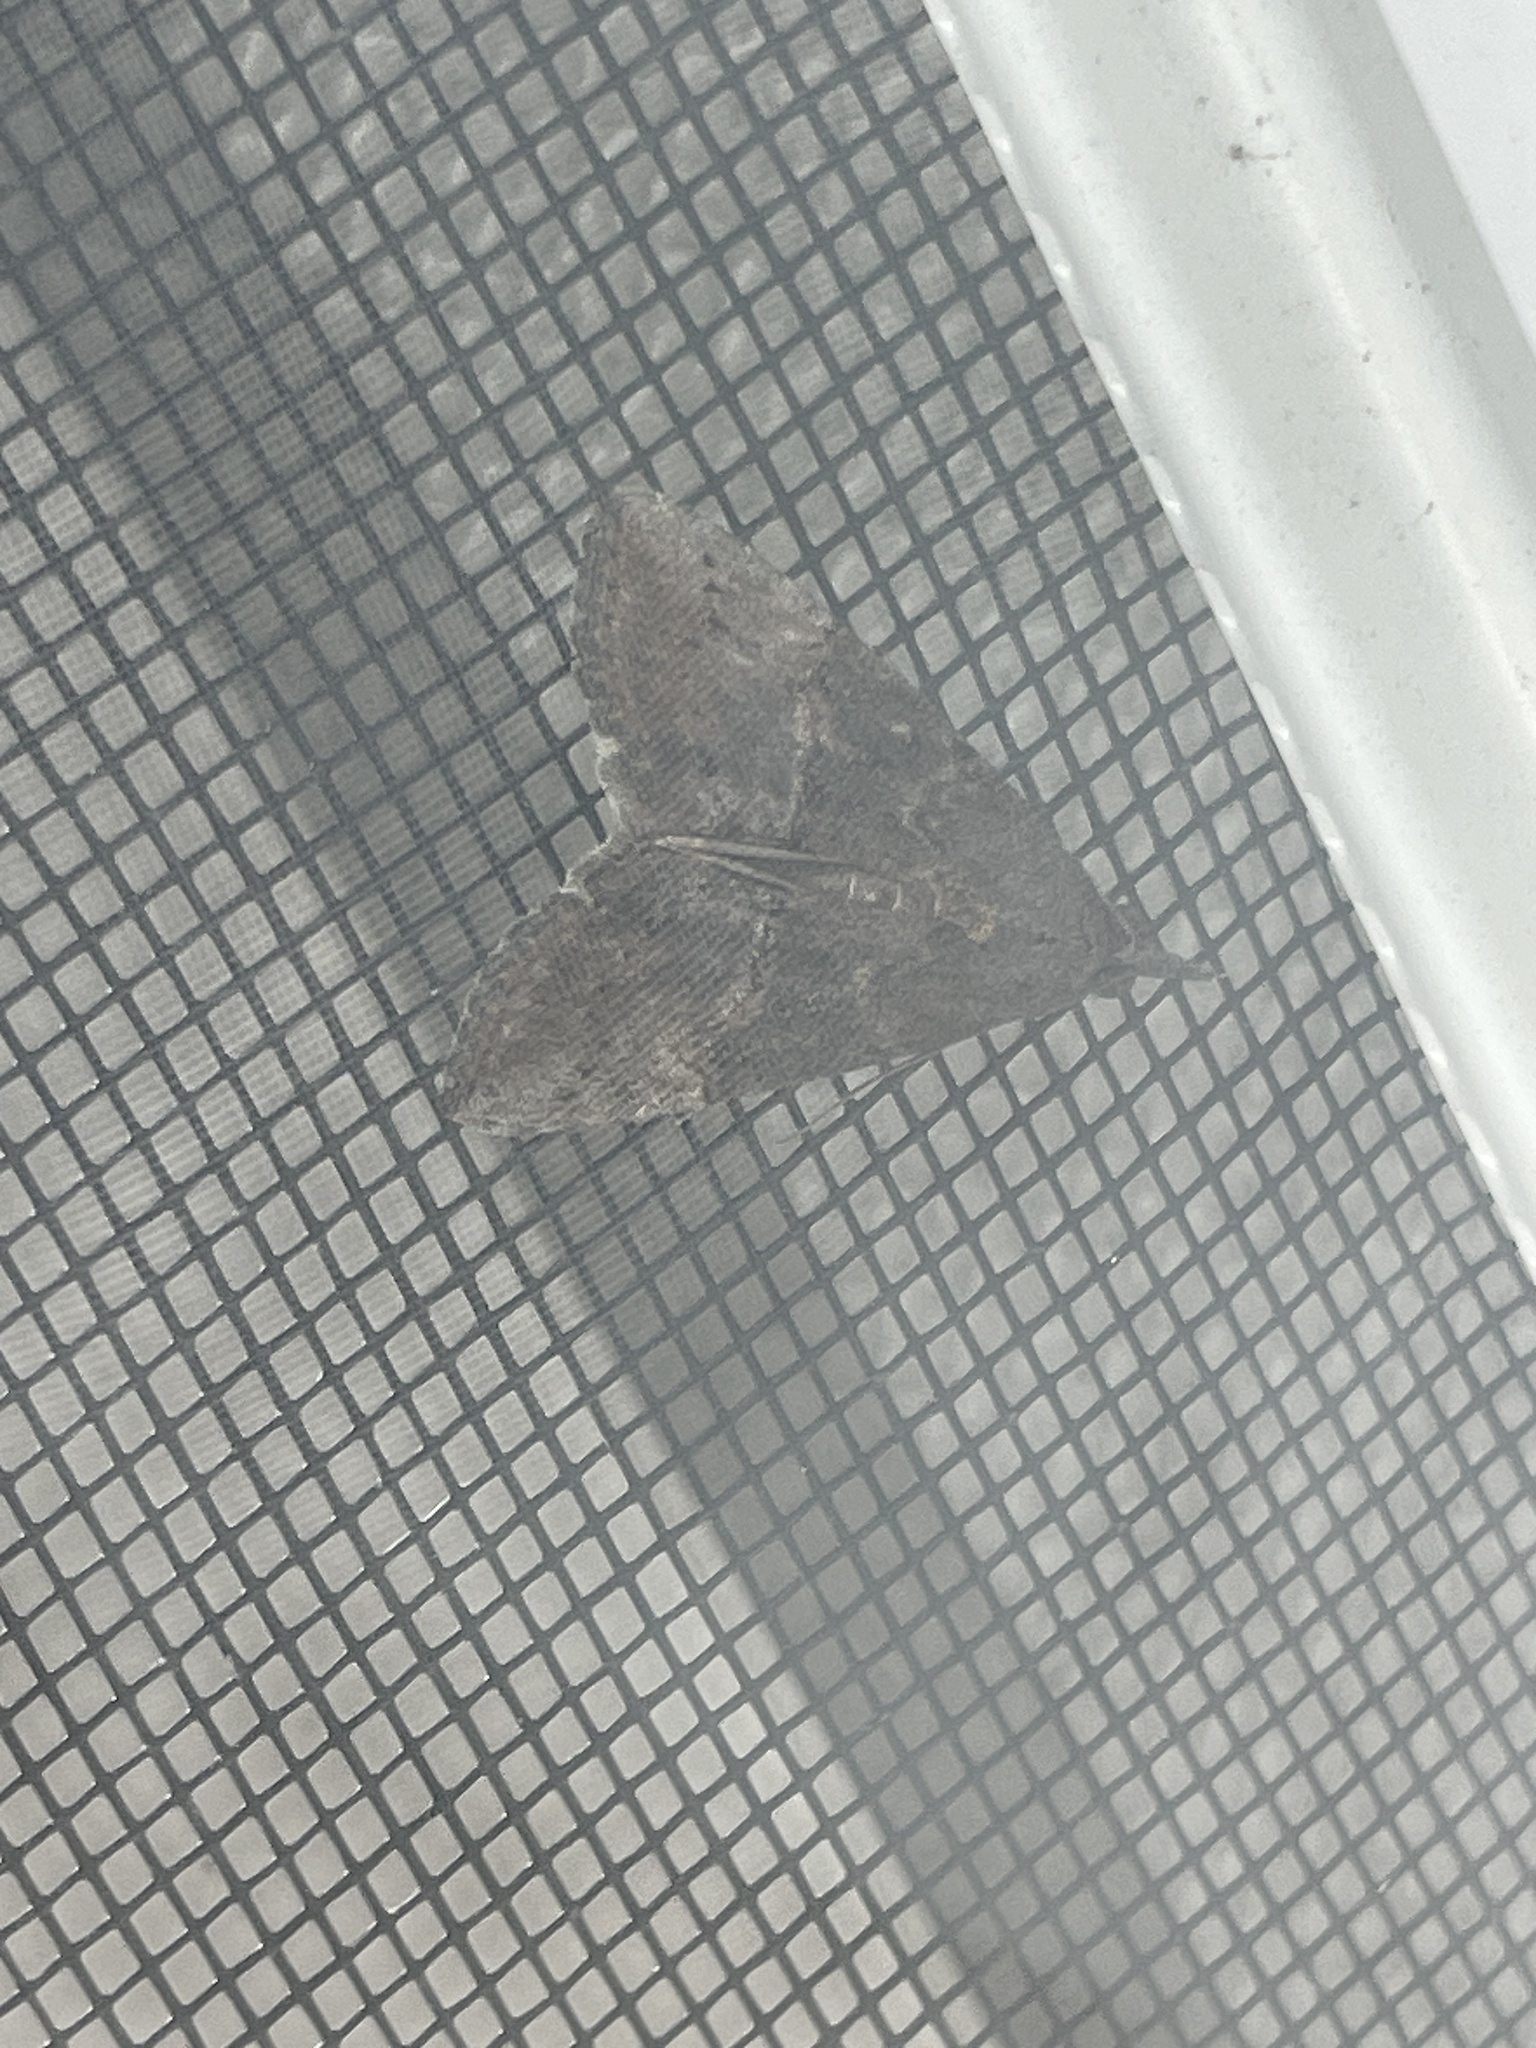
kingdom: Animalia
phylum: Arthropoda
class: Insecta
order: Lepidoptera
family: Erebidae
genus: Hypena
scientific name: Hypena scabra
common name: Green cloverworm
